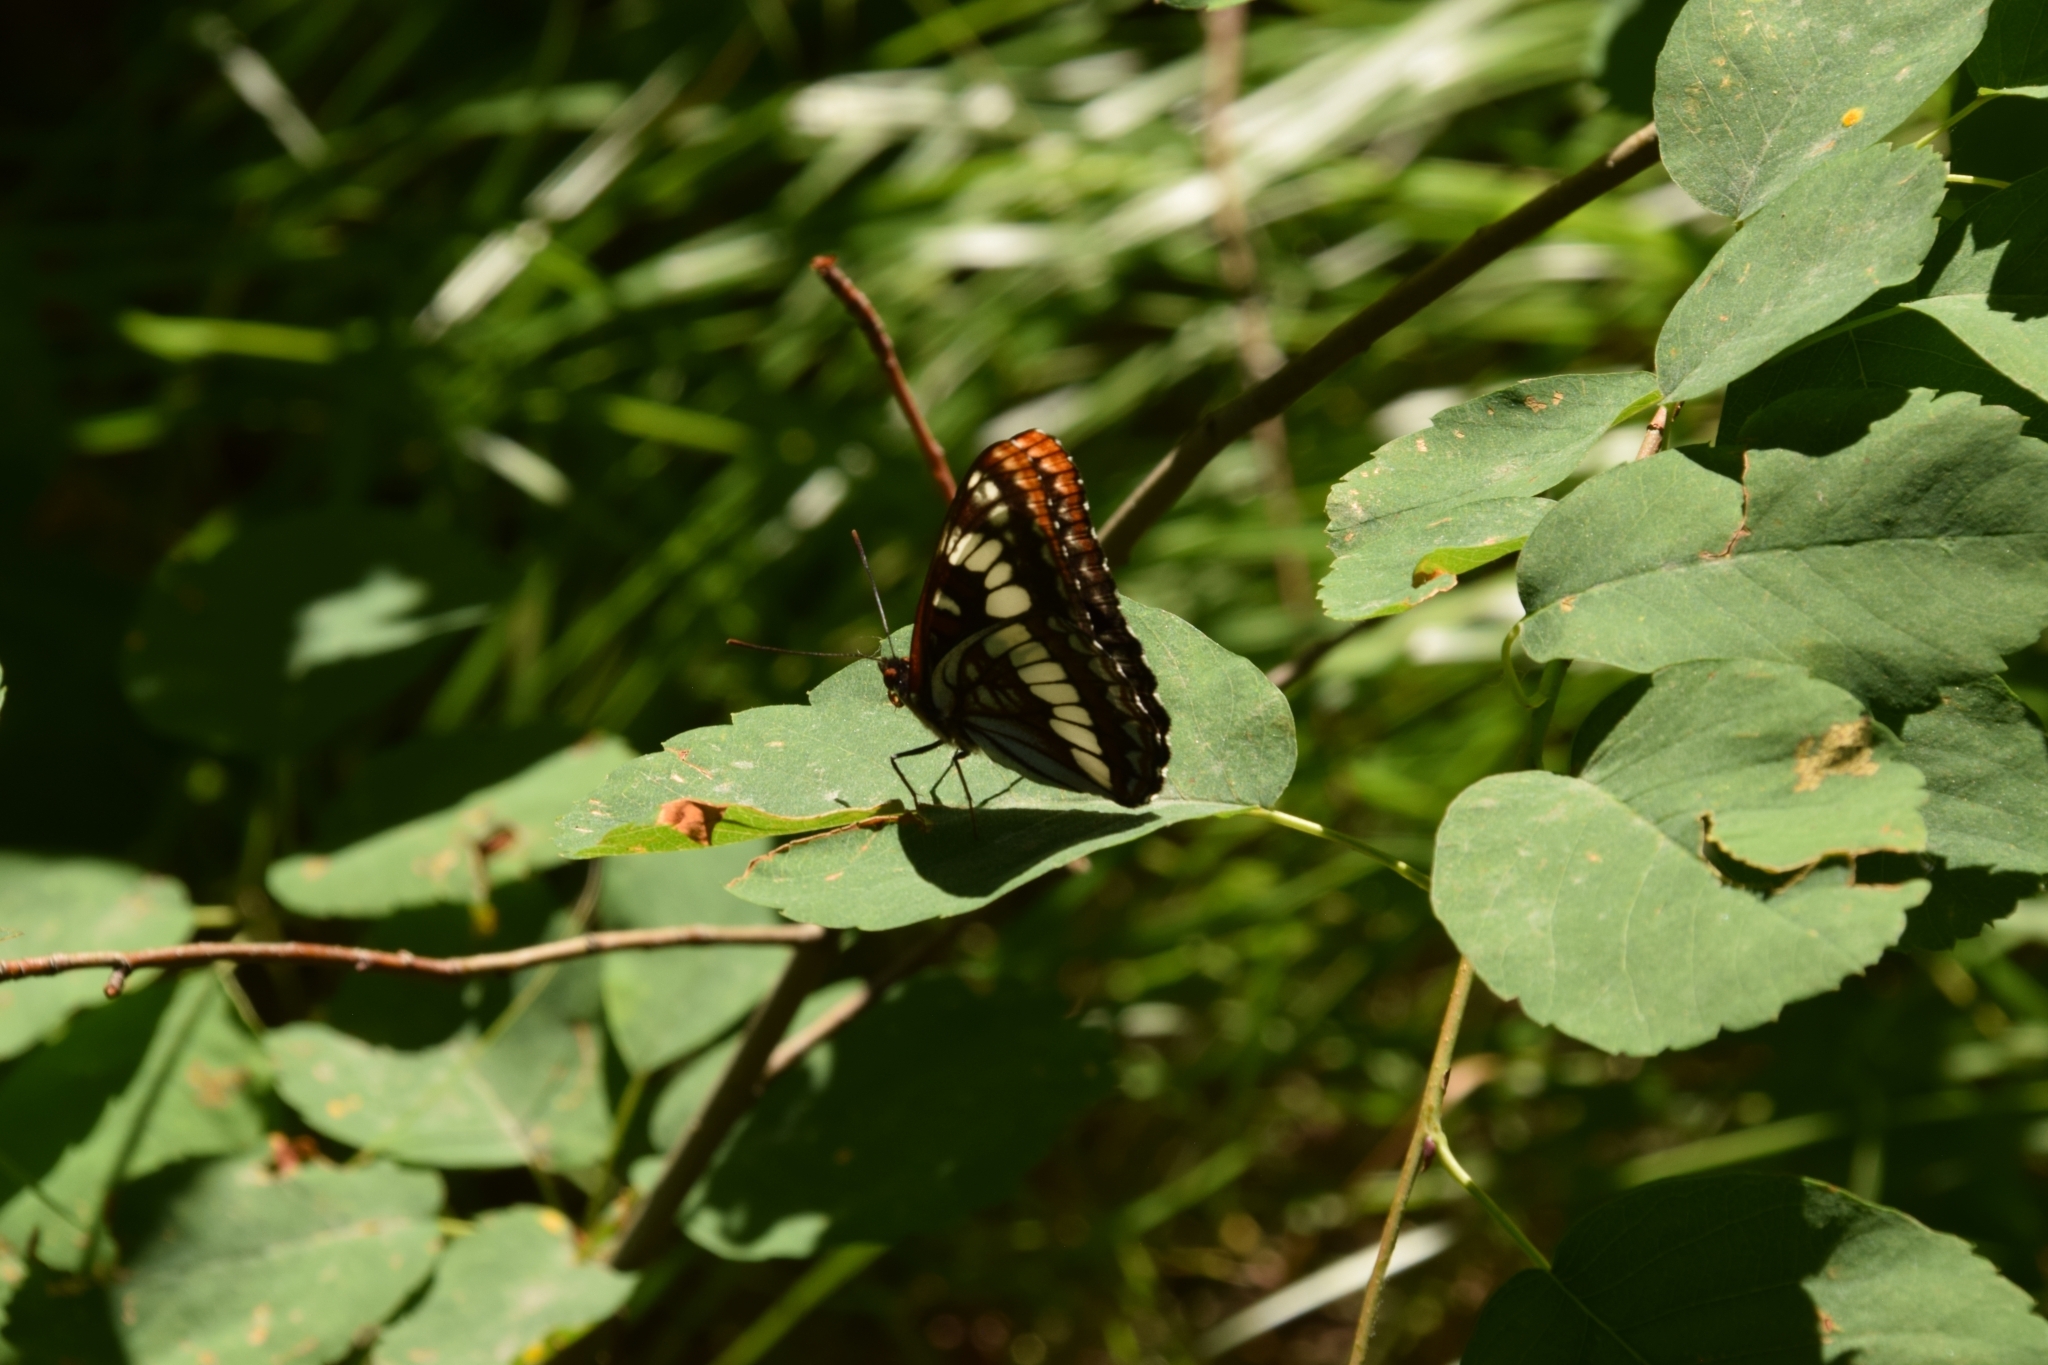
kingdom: Animalia
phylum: Arthropoda
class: Insecta
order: Lepidoptera
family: Nymphalidae
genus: Limenitis
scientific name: Limenitis lorquini
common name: Lorquin's admiral
